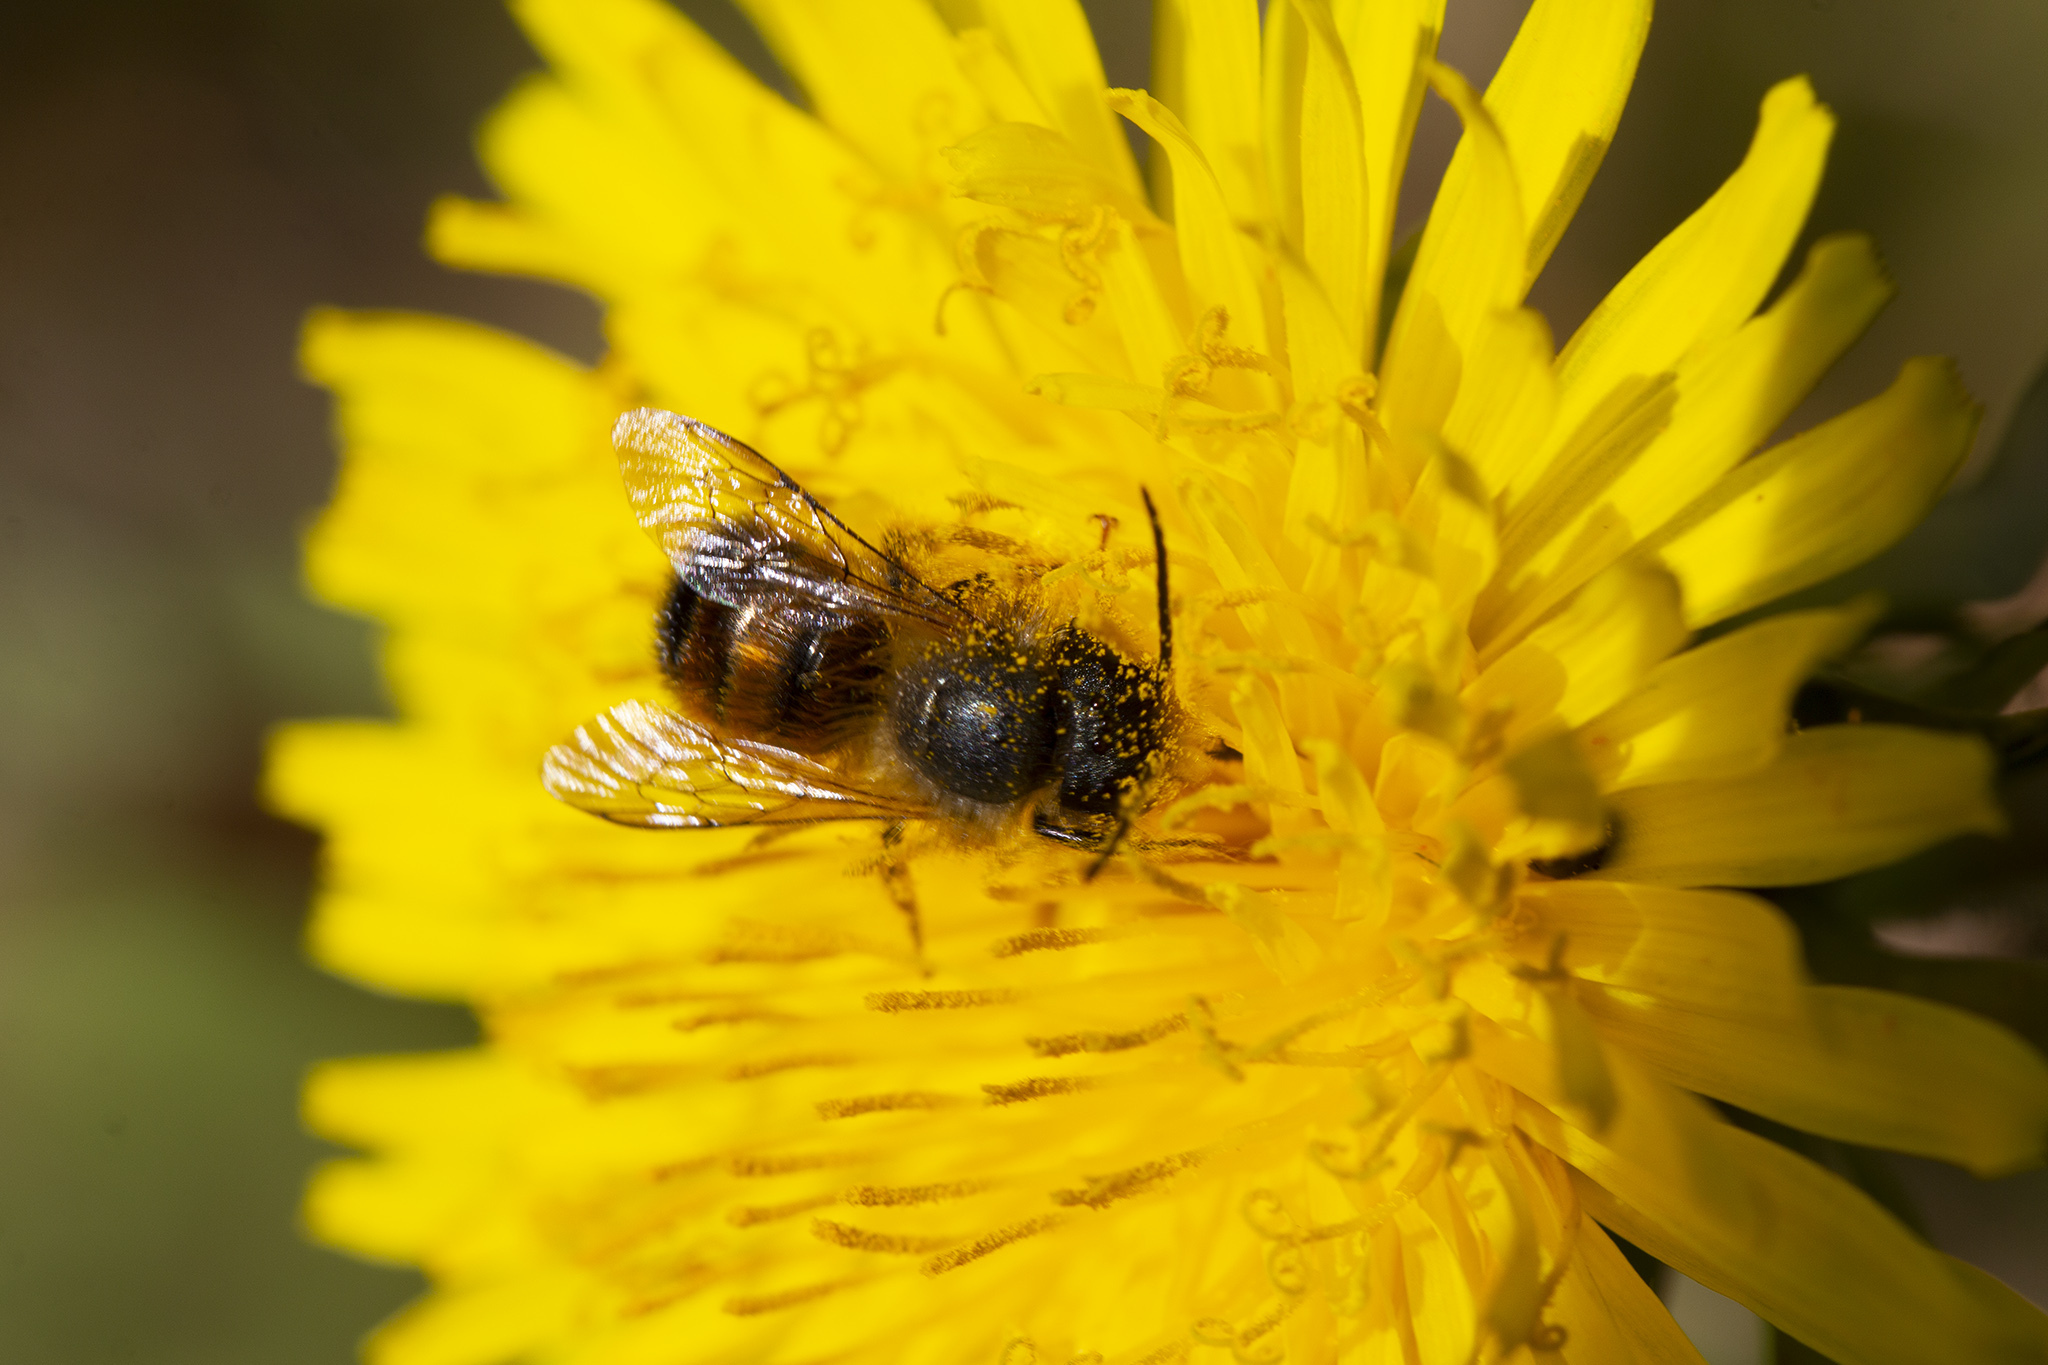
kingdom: Animalia
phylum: Arthropoda
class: Insecta
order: Hymenoptera
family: Megachilidae
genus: Osmia
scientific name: Osmia bicornis
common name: Red mason bee
